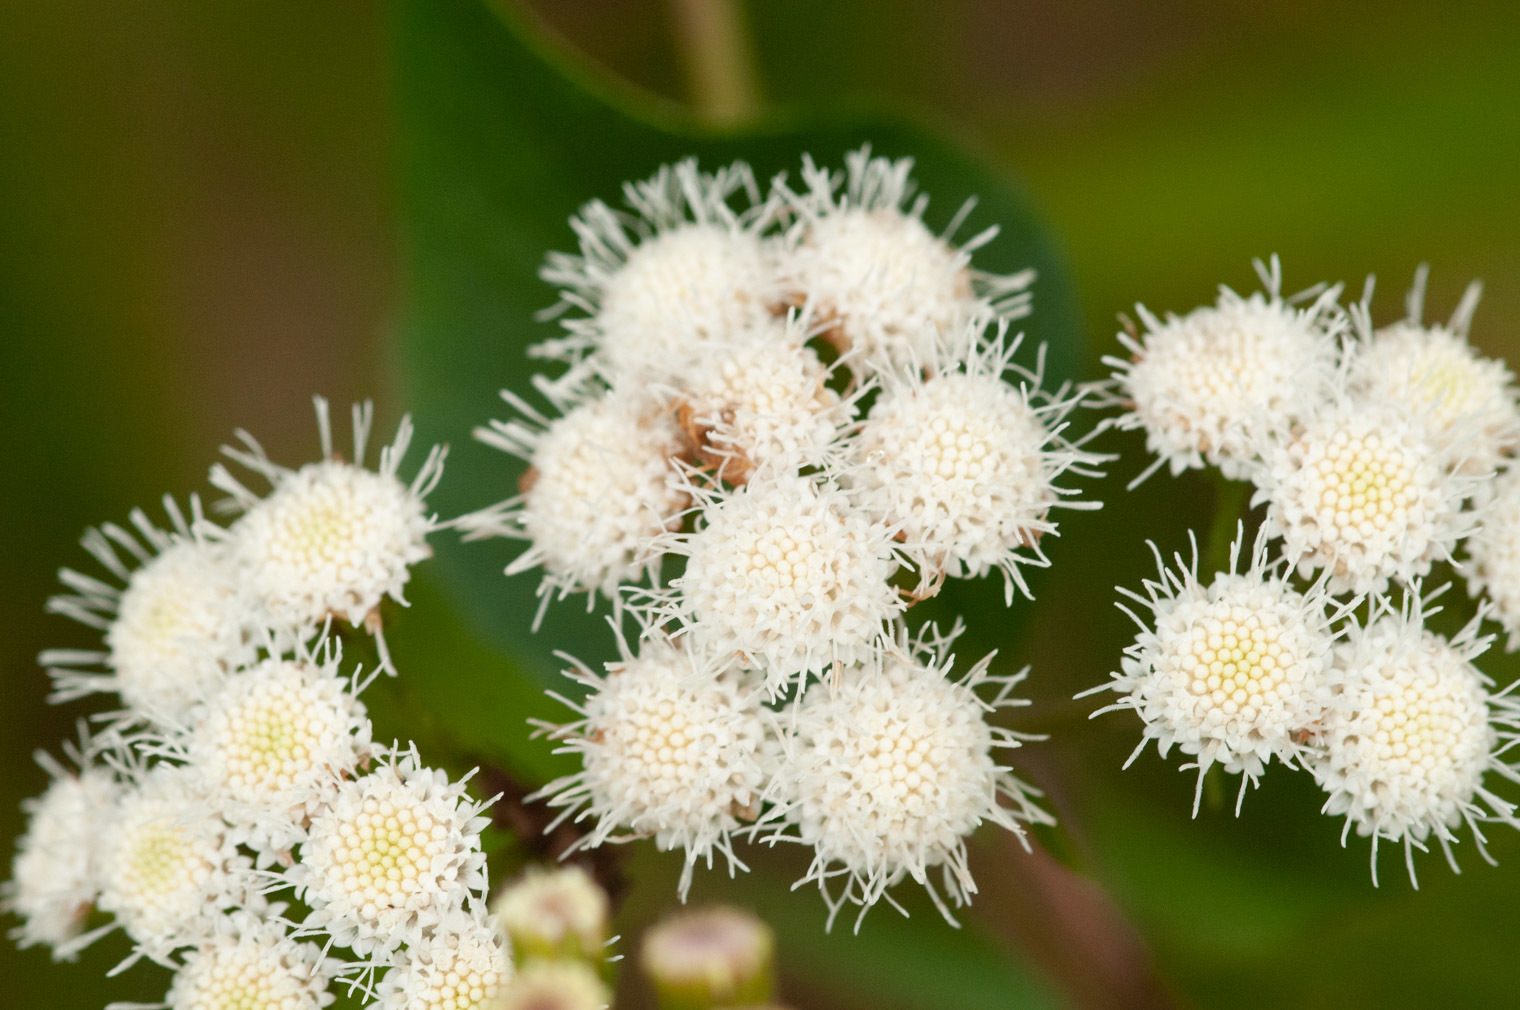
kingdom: Plantae
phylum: Tracheophyta
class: Magnoliopsida
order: Asterales
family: Asteraceae
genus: Ageratina
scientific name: Ageratina adenophora
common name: Sticky snakeroot
